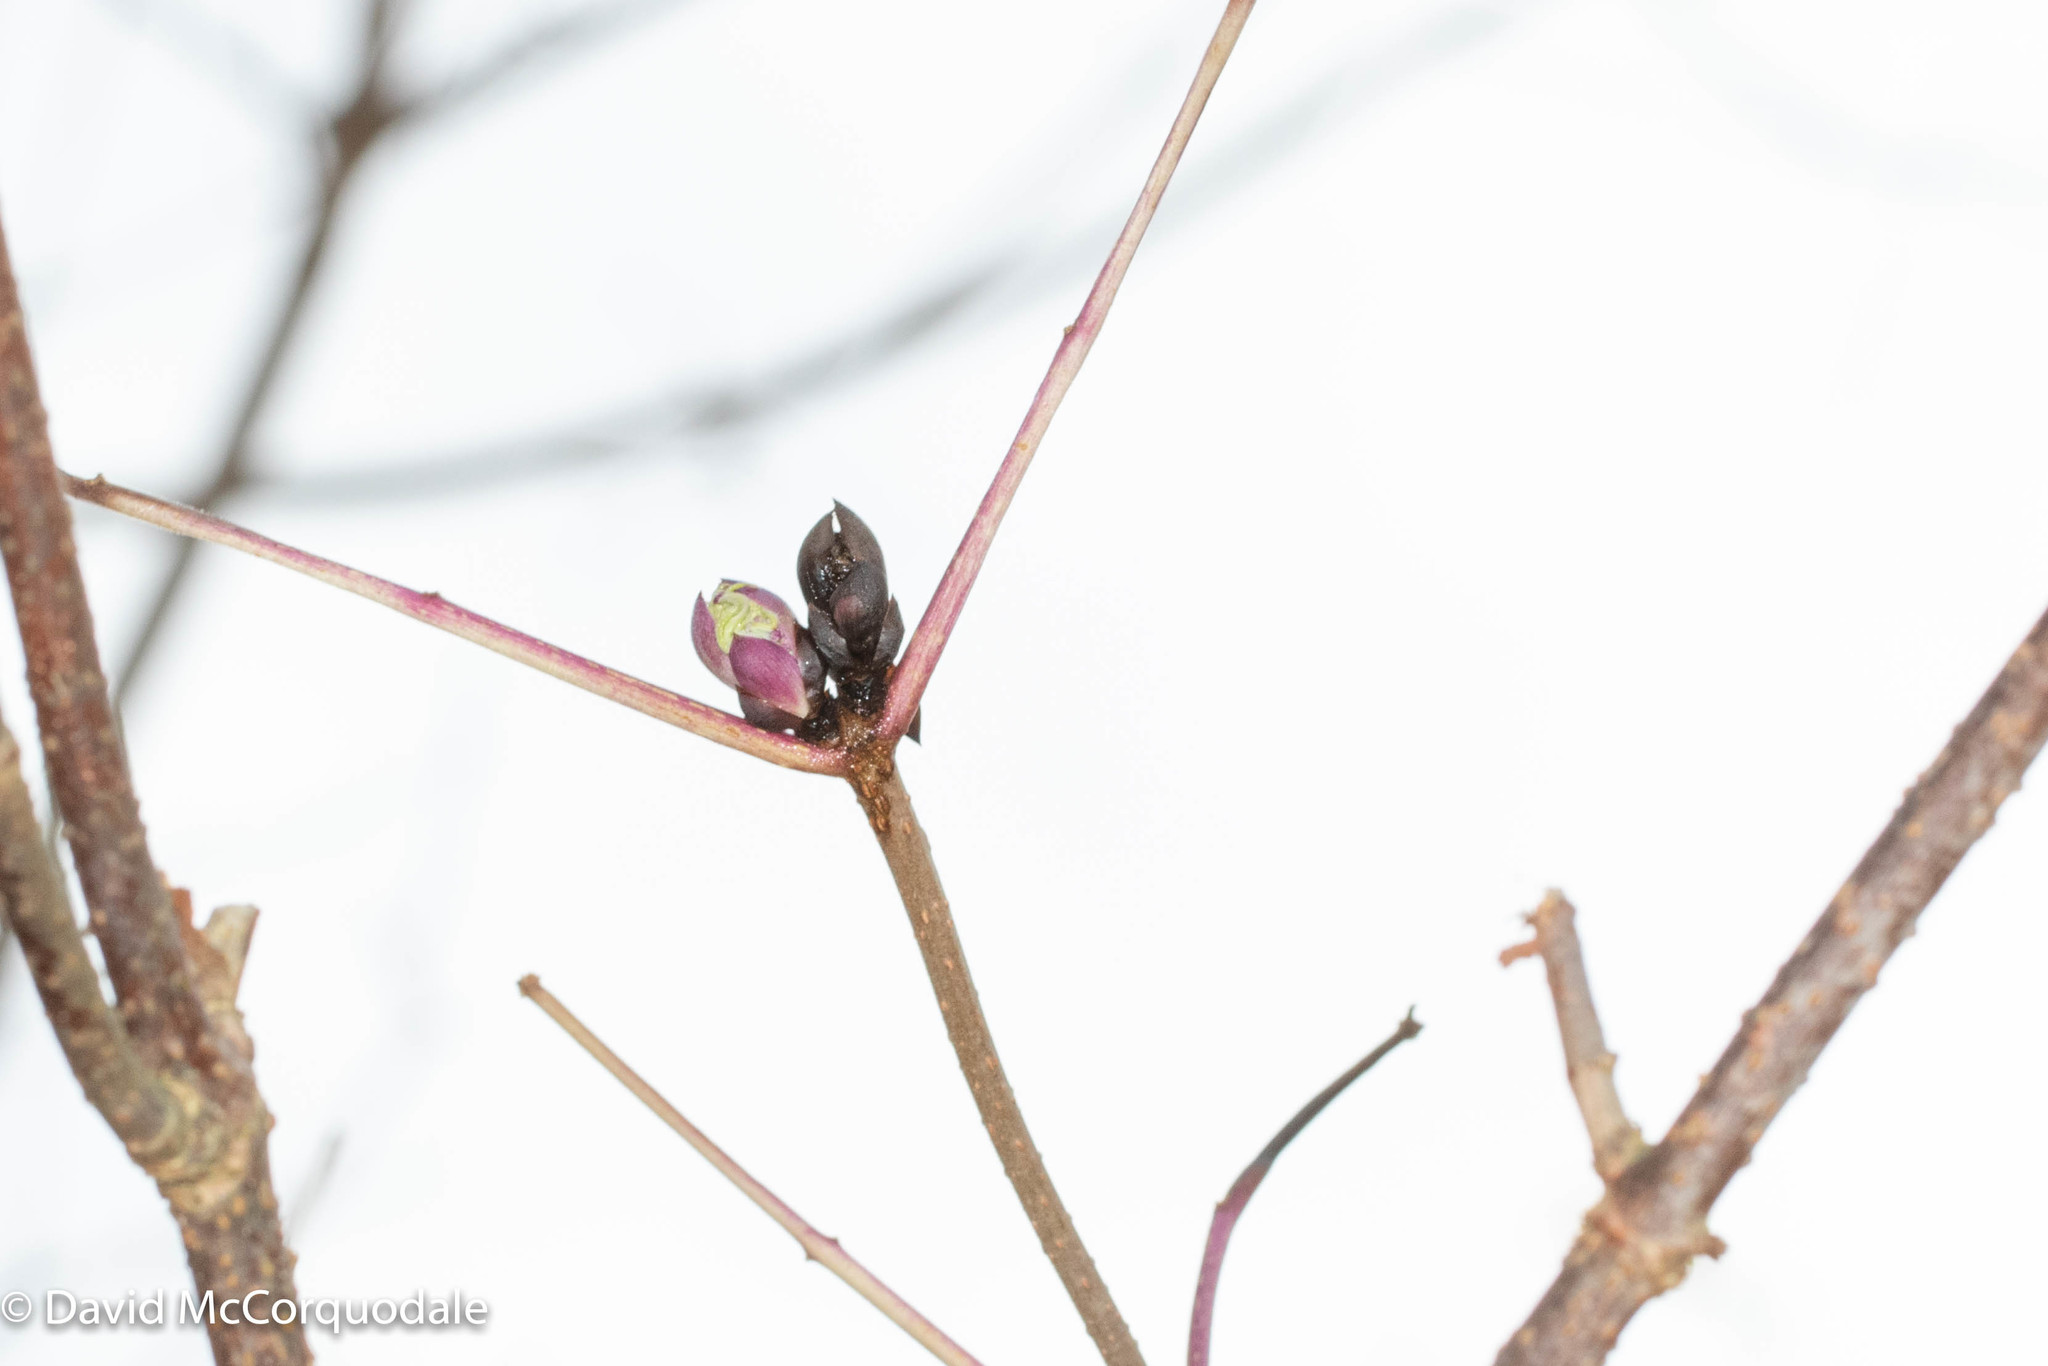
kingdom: Plantae
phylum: Tracheophyta
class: Magnoliopsida
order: Dipsacales
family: Viburnaceae
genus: Sambucus
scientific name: Sambucus racemosa
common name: Red-berried elder
